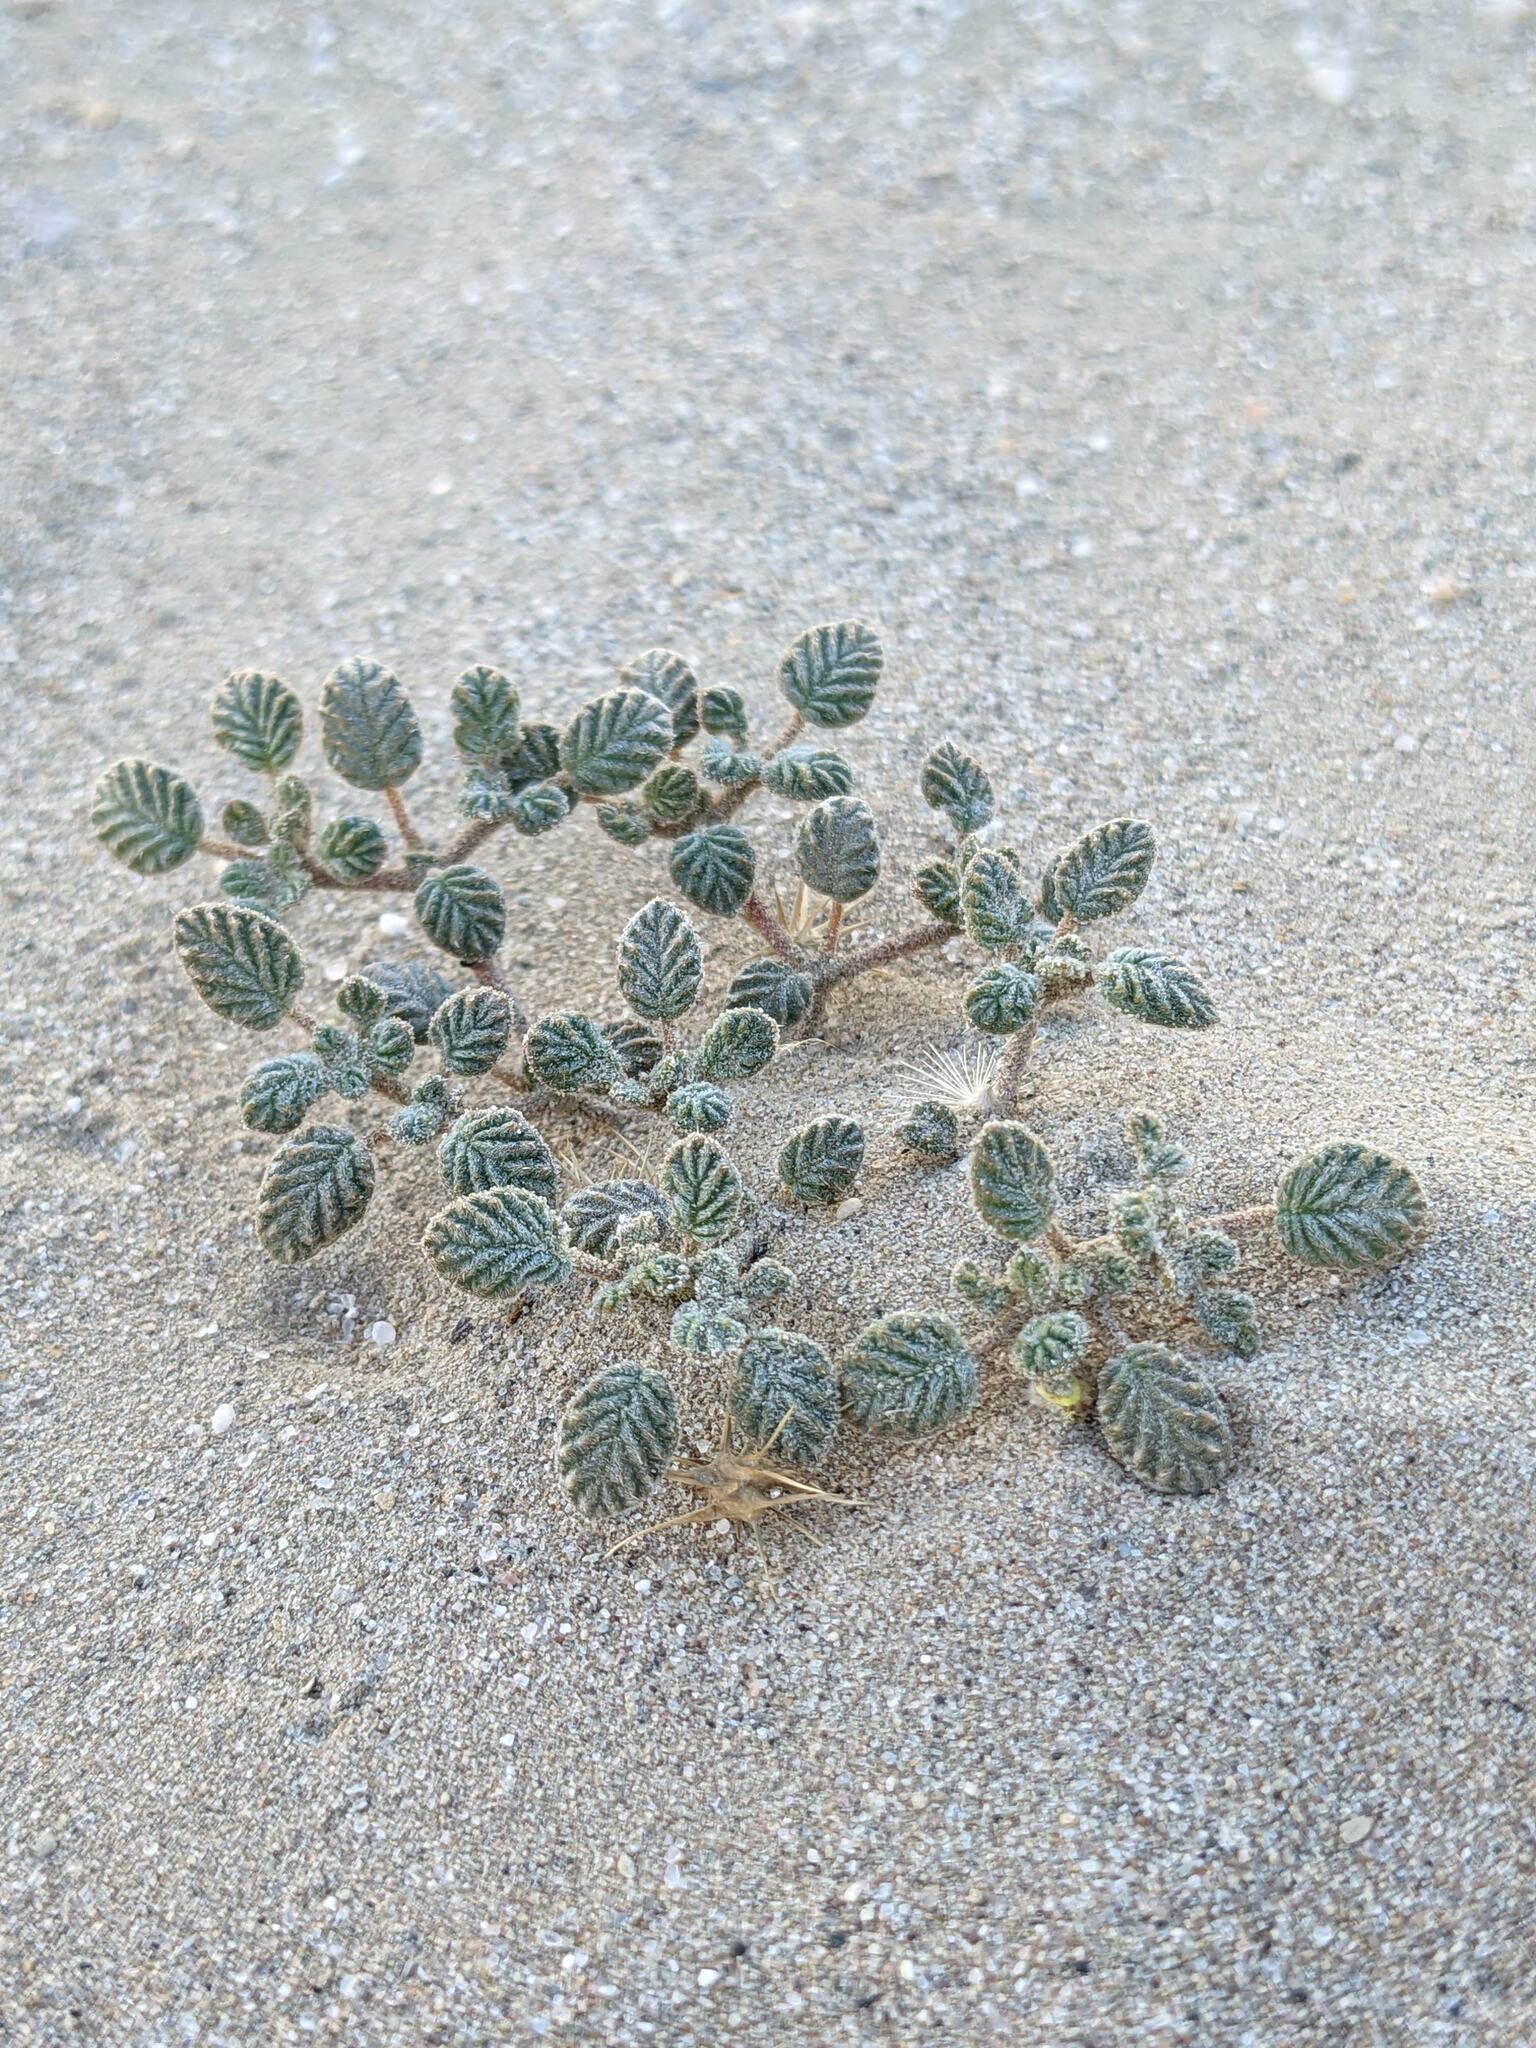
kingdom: Plantae
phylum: Tracheophyta
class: Magnoliopsida
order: Boraginales
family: Ehretiaceae
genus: Tiquilia
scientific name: Tiquilia plicata
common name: Fan-leaf tiquilia
